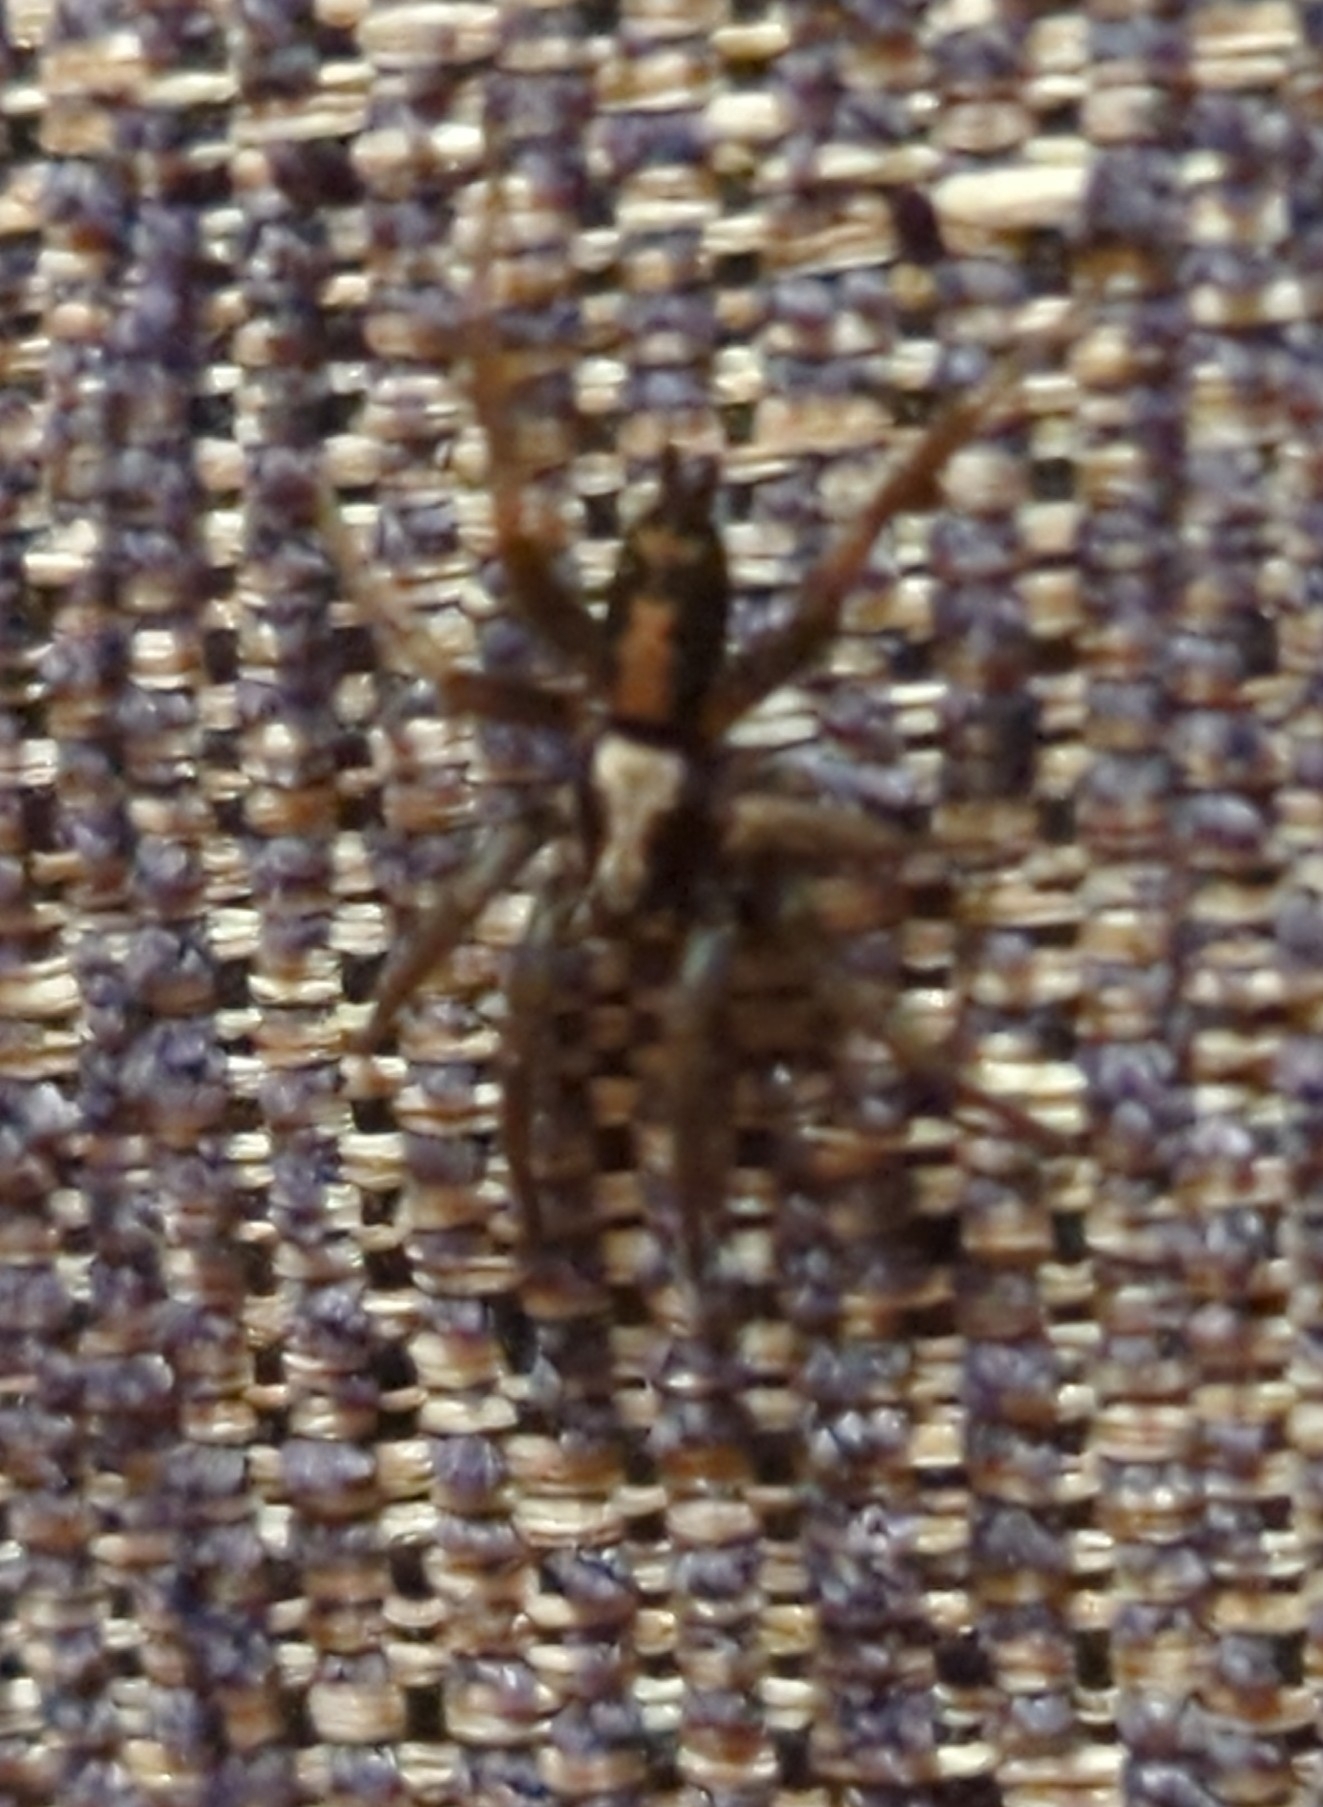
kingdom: Animalia
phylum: Arthropoda
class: Arachnida
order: Araneae
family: Gnaphosidae
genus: Herpyllus
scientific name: Herpyllus ecclesiasticus
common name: Eastern parson spider
